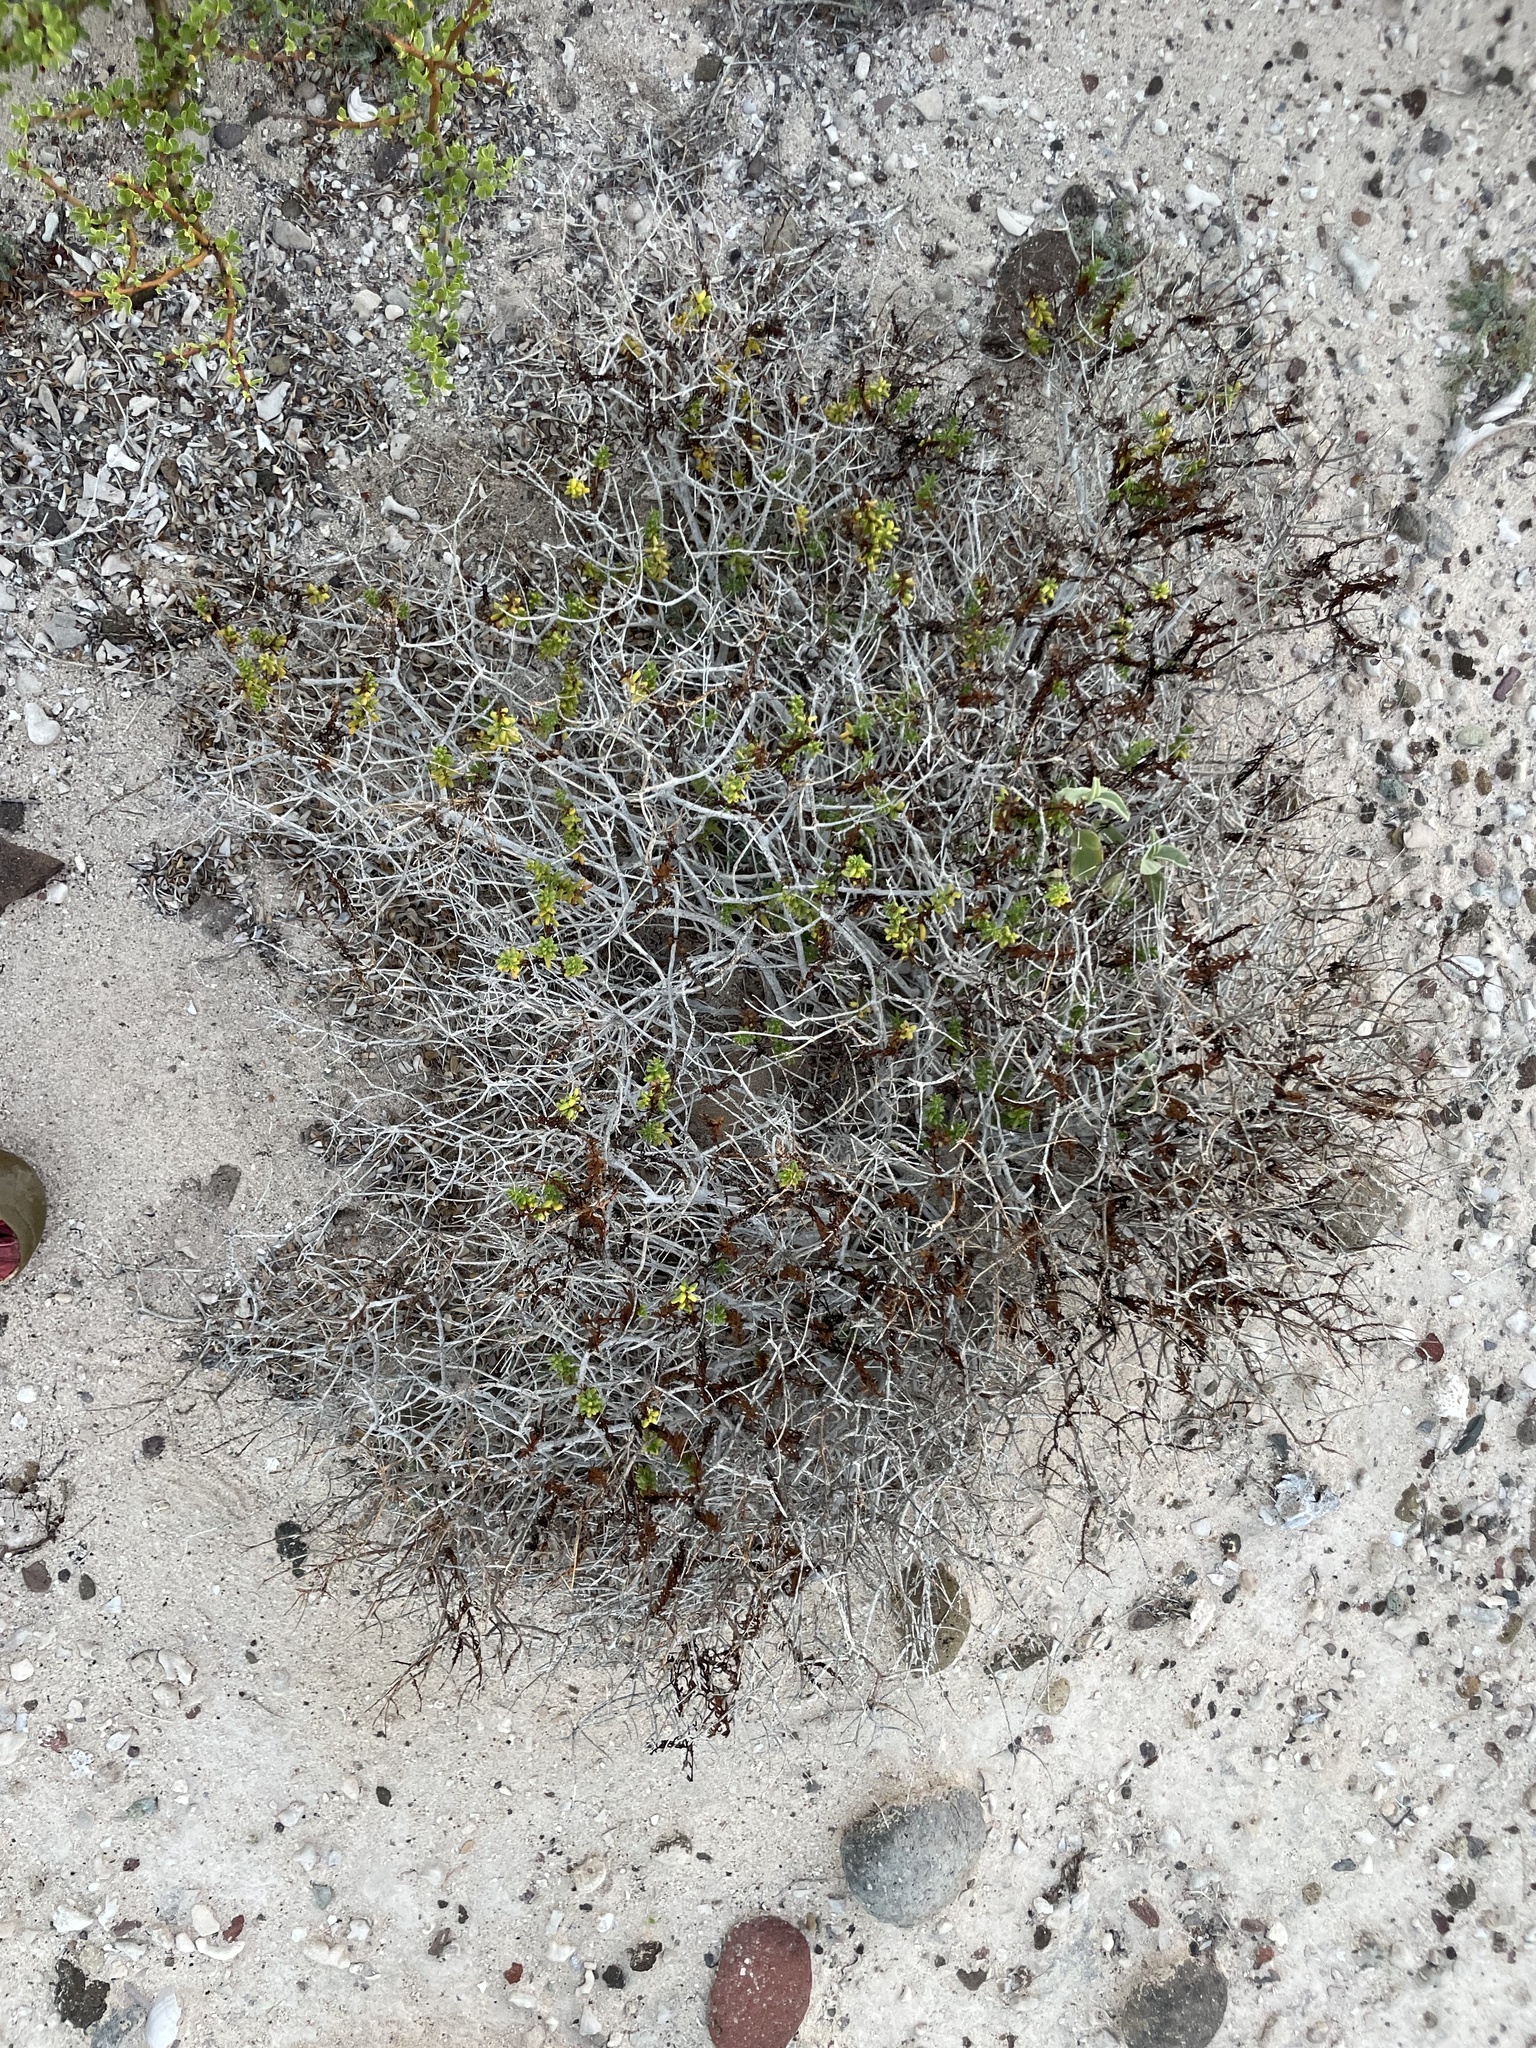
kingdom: Plantae
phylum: Tracheophyta
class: Magnoliopsida
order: Asterales
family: Asteraceae
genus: Bajacalia
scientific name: Bajacalia crassifolia
